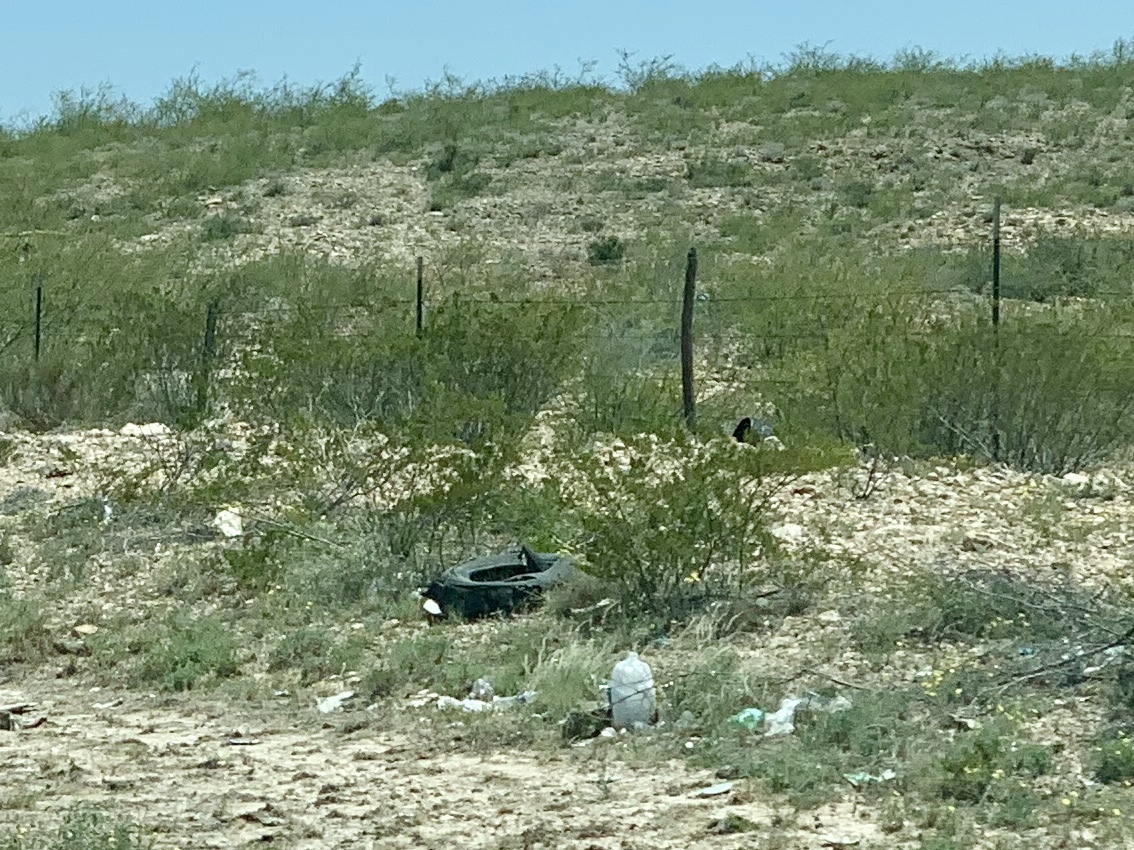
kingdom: Plantae
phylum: Tracheophyta
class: Magnoliopsida
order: Zygophyllales
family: Zygophyllaceae
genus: Larrea
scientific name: Larrea tridentata
